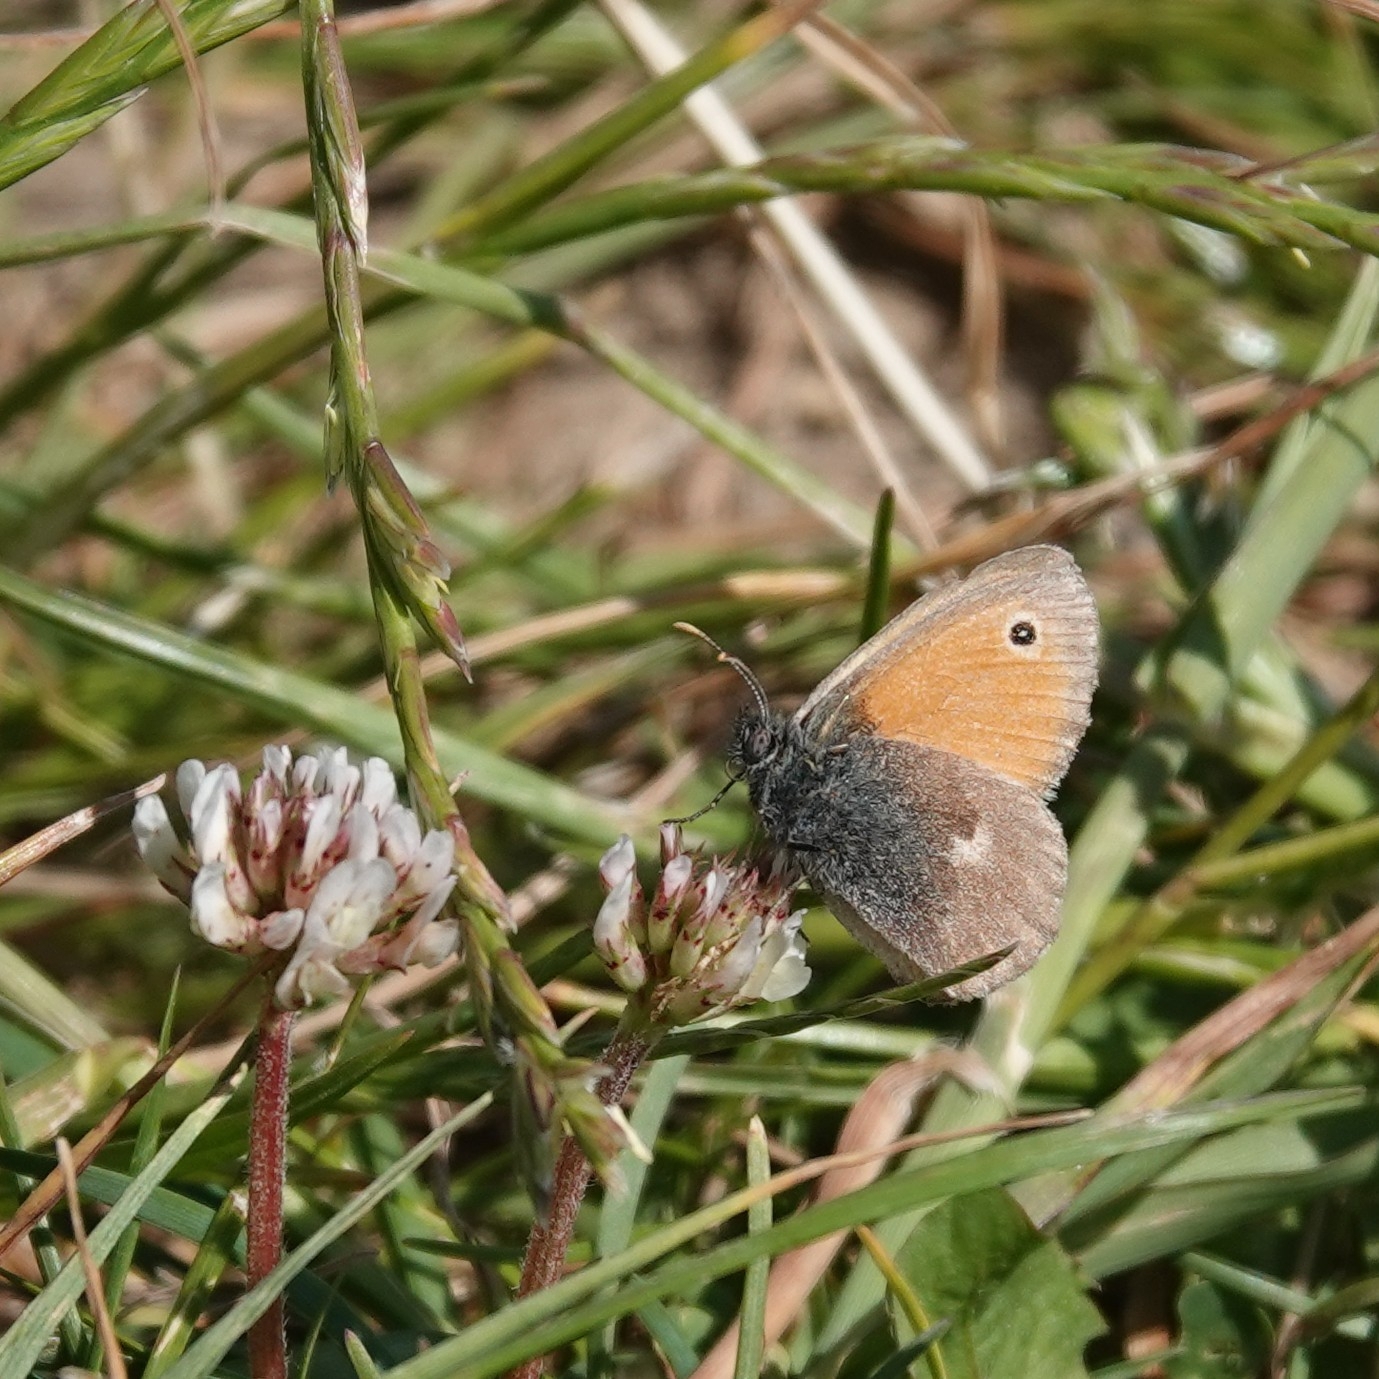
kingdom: Animalia
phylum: Arthropoda
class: Insecta
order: Lepidoptera
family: Nymphalidae
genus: Coenonympha
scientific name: Coenonympha pamphilus
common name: Small heath
